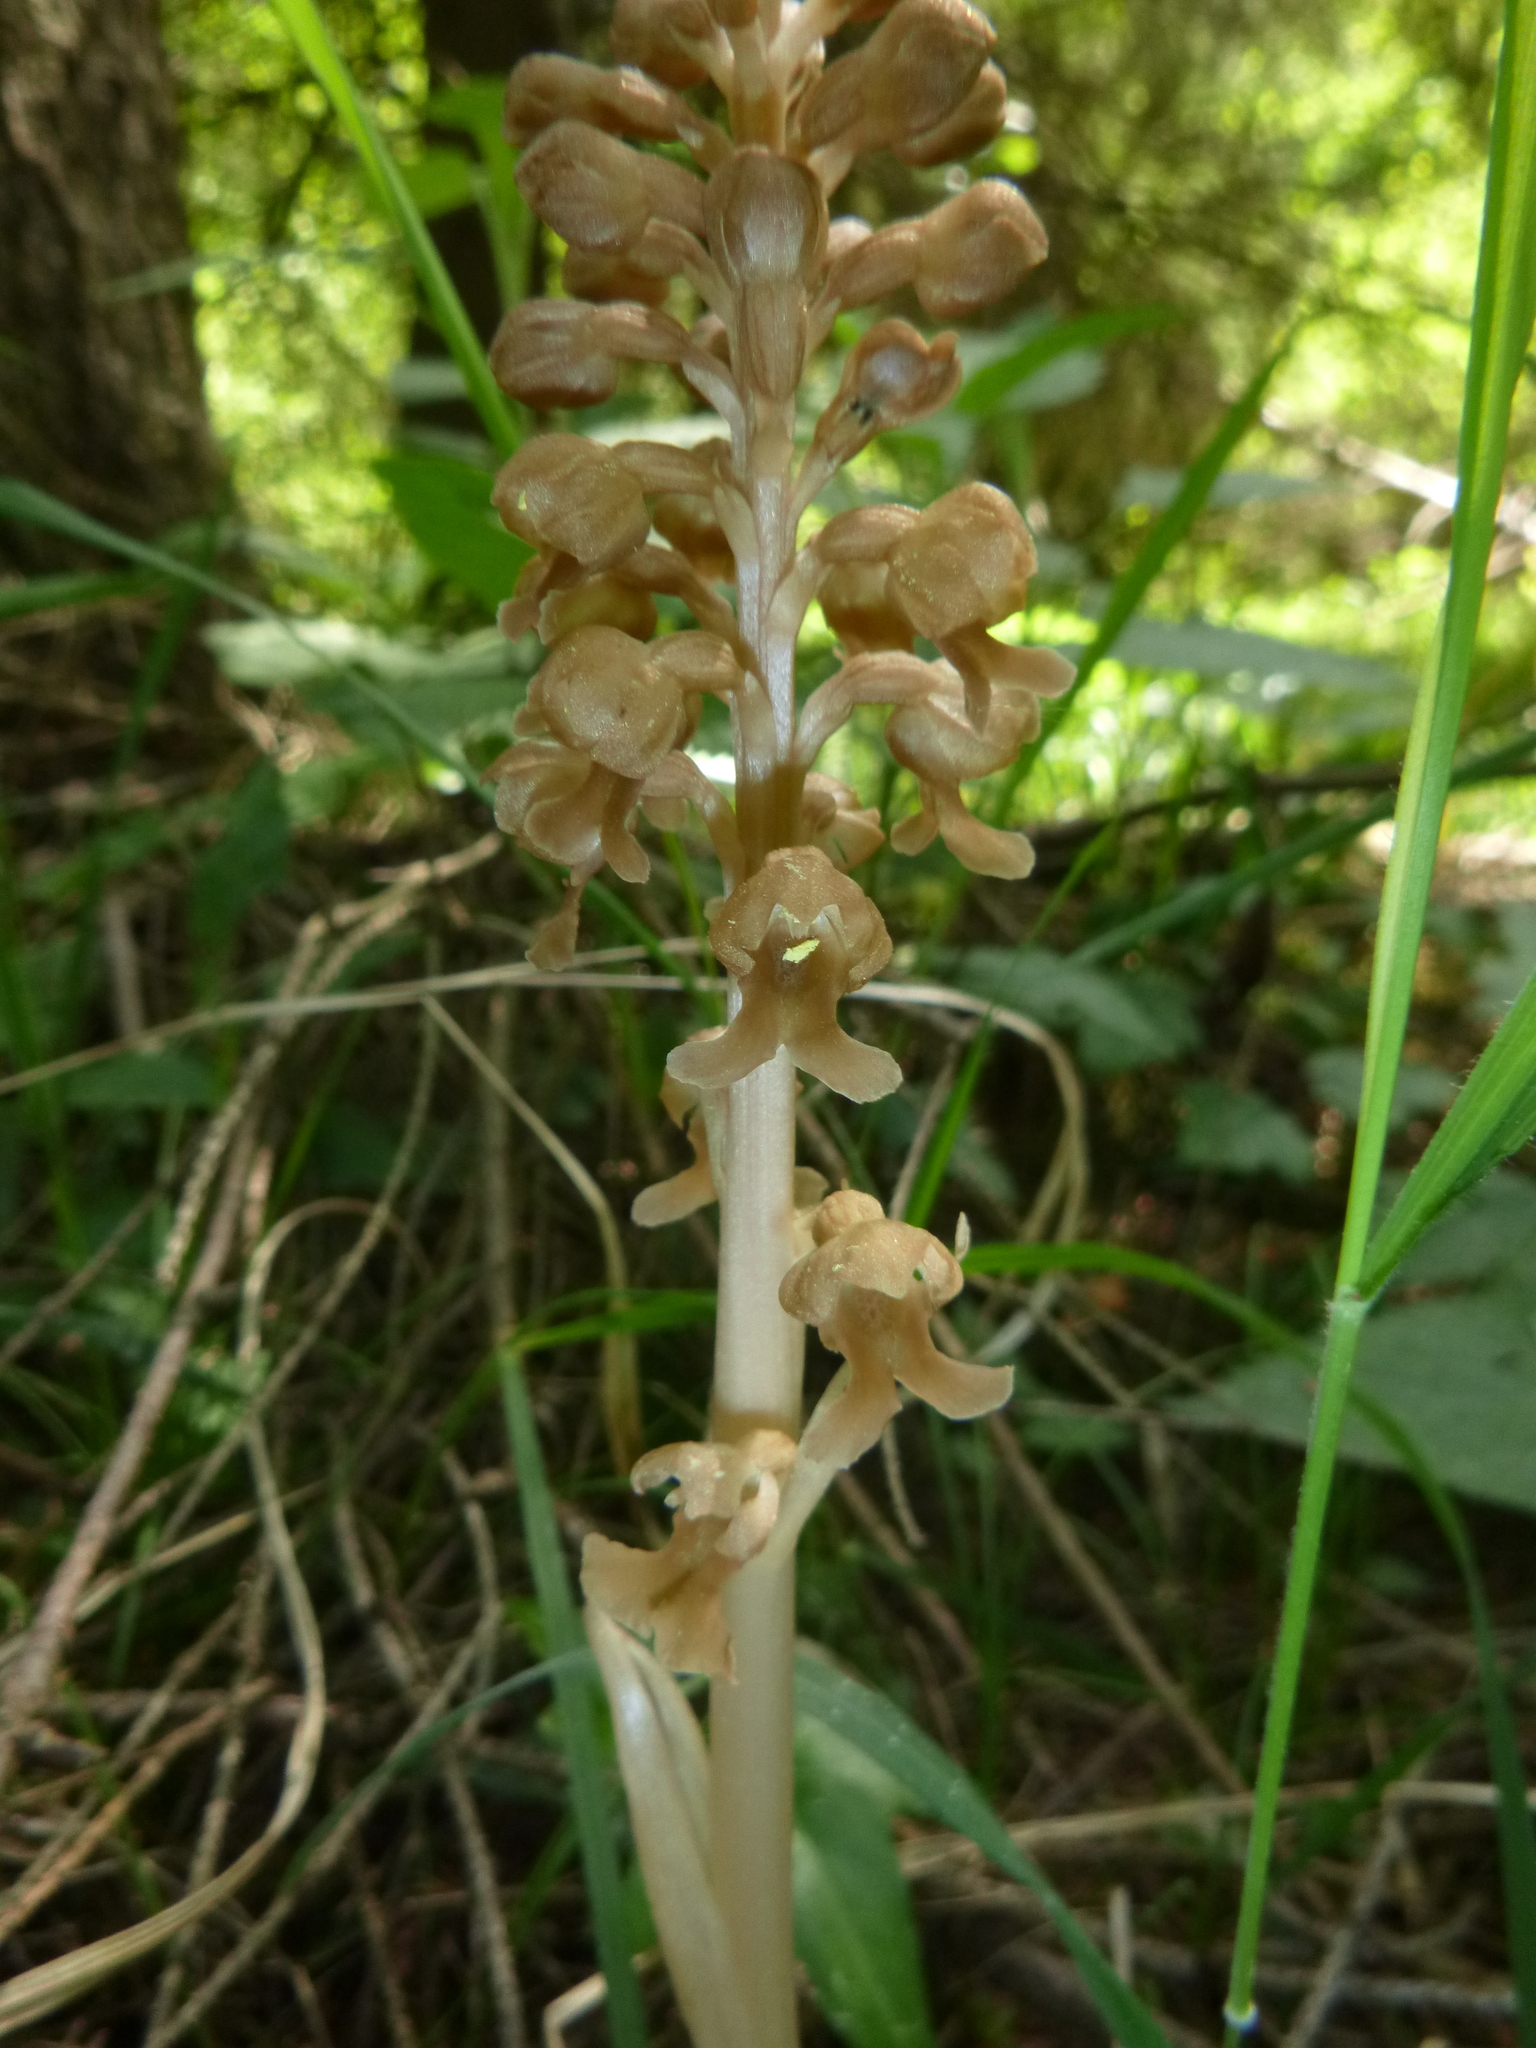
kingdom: Plantae
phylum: Tracheophyta
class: Liliopsida
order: Asparagales
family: Orchidaceae
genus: Neottia
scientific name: Neottia nidus-avis
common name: Bird's-nest orchid
